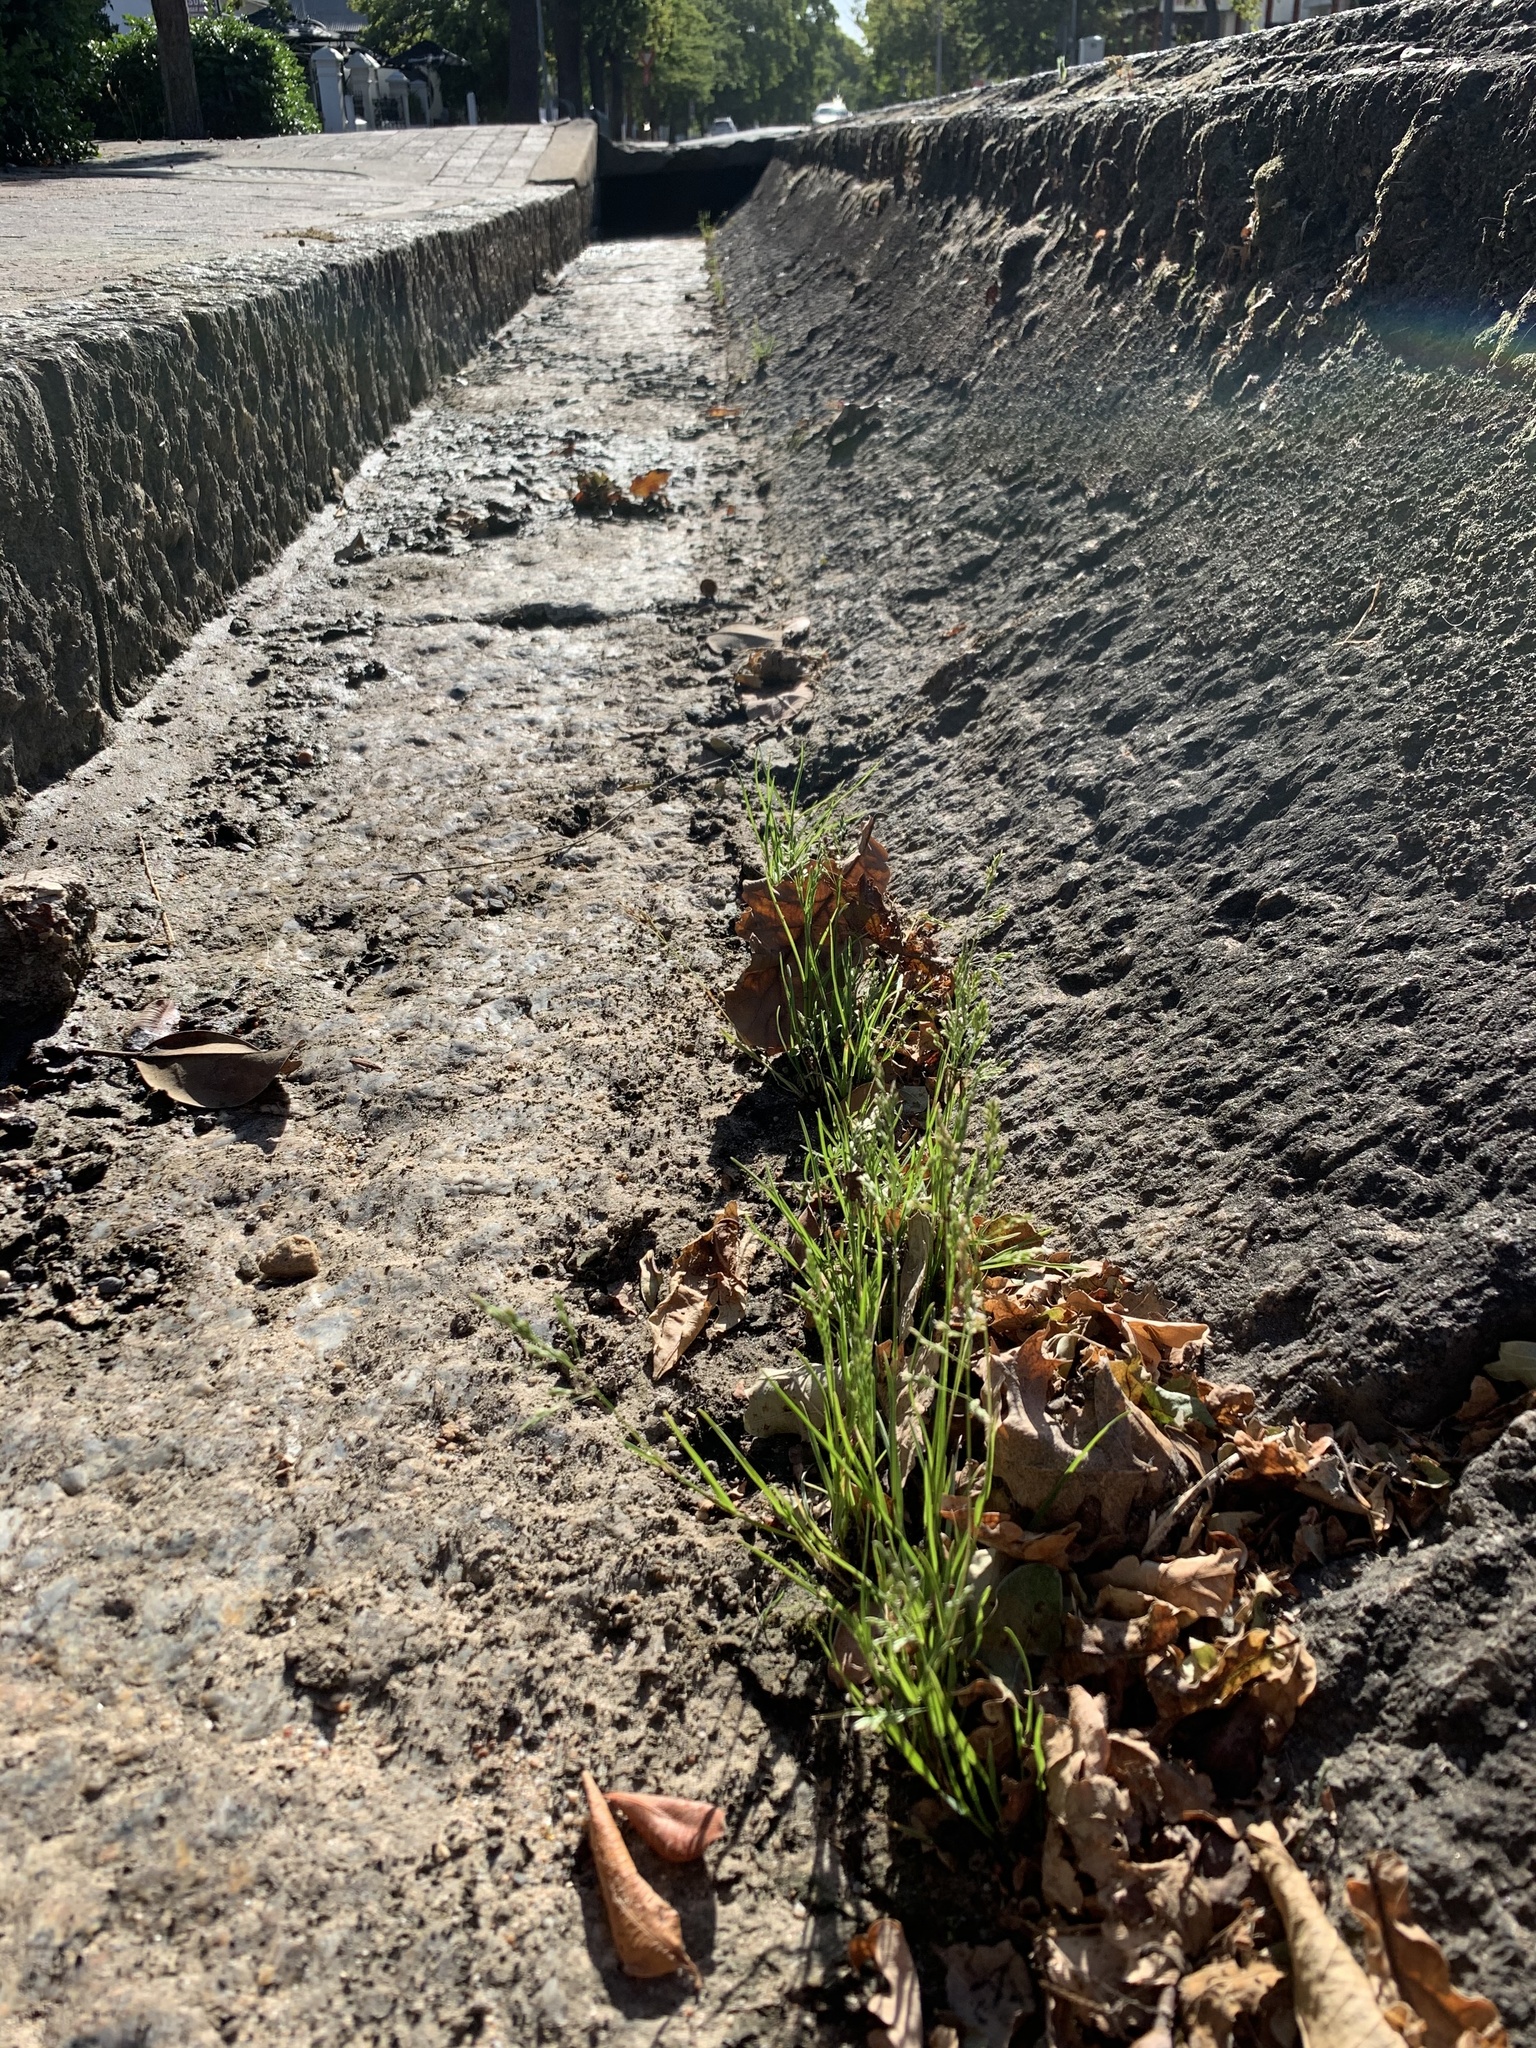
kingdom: Plantae
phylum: Tracheophyta
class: Liliopsida
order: Poales
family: Poaceae
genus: Poa
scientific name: Poa annua
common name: Annual bluegrass
